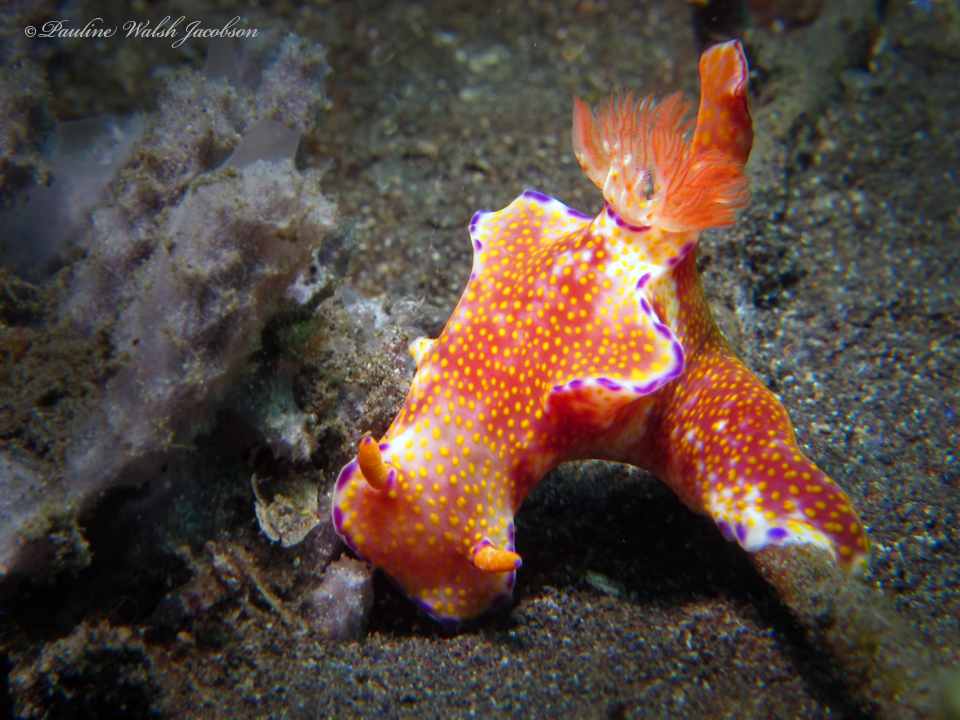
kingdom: Animalia
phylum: Mollusca
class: Gastropoda
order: Nudibranchia
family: Chromodorididae
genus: Ceratosoma
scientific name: Ceratosoma gracillimum
